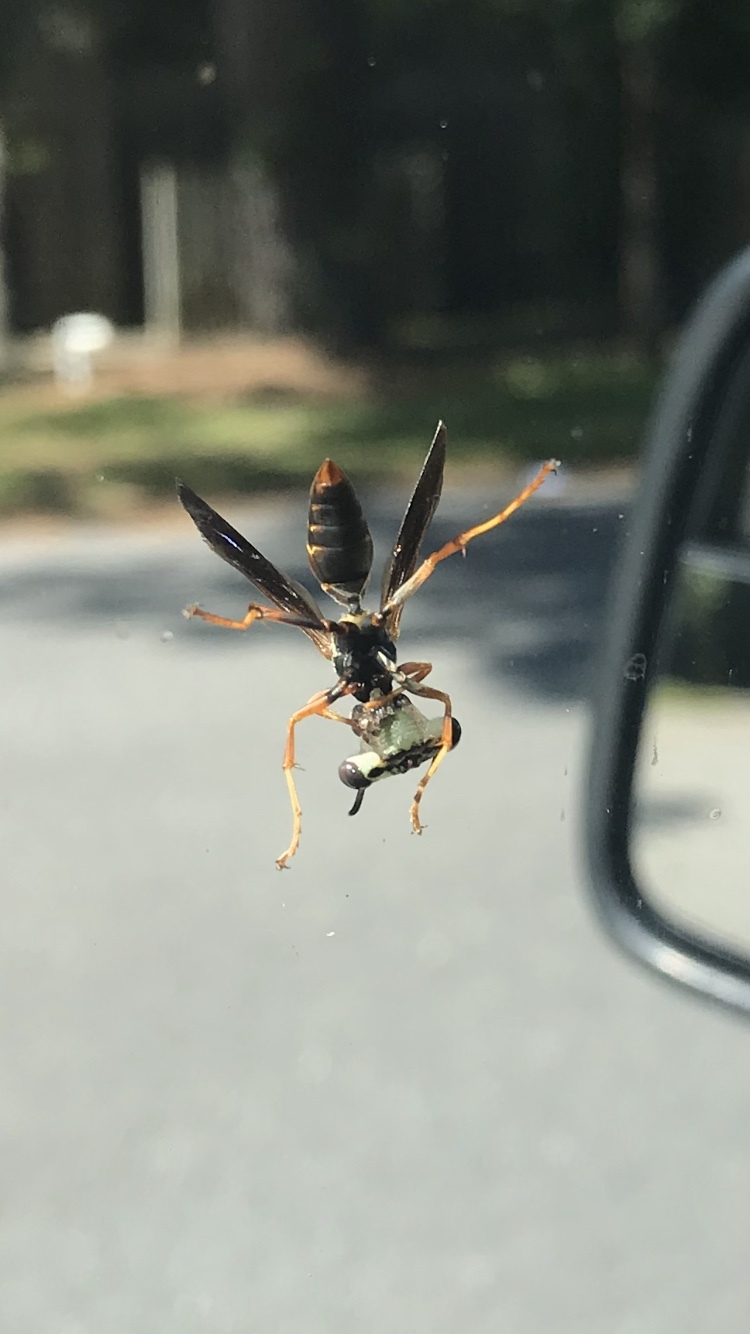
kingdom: Animalia
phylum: Arthropoda
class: Insecta
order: Hymenoptera
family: Eumenidae
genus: Polistes
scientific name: Polistes fuscatus
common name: Dark paper wasp
